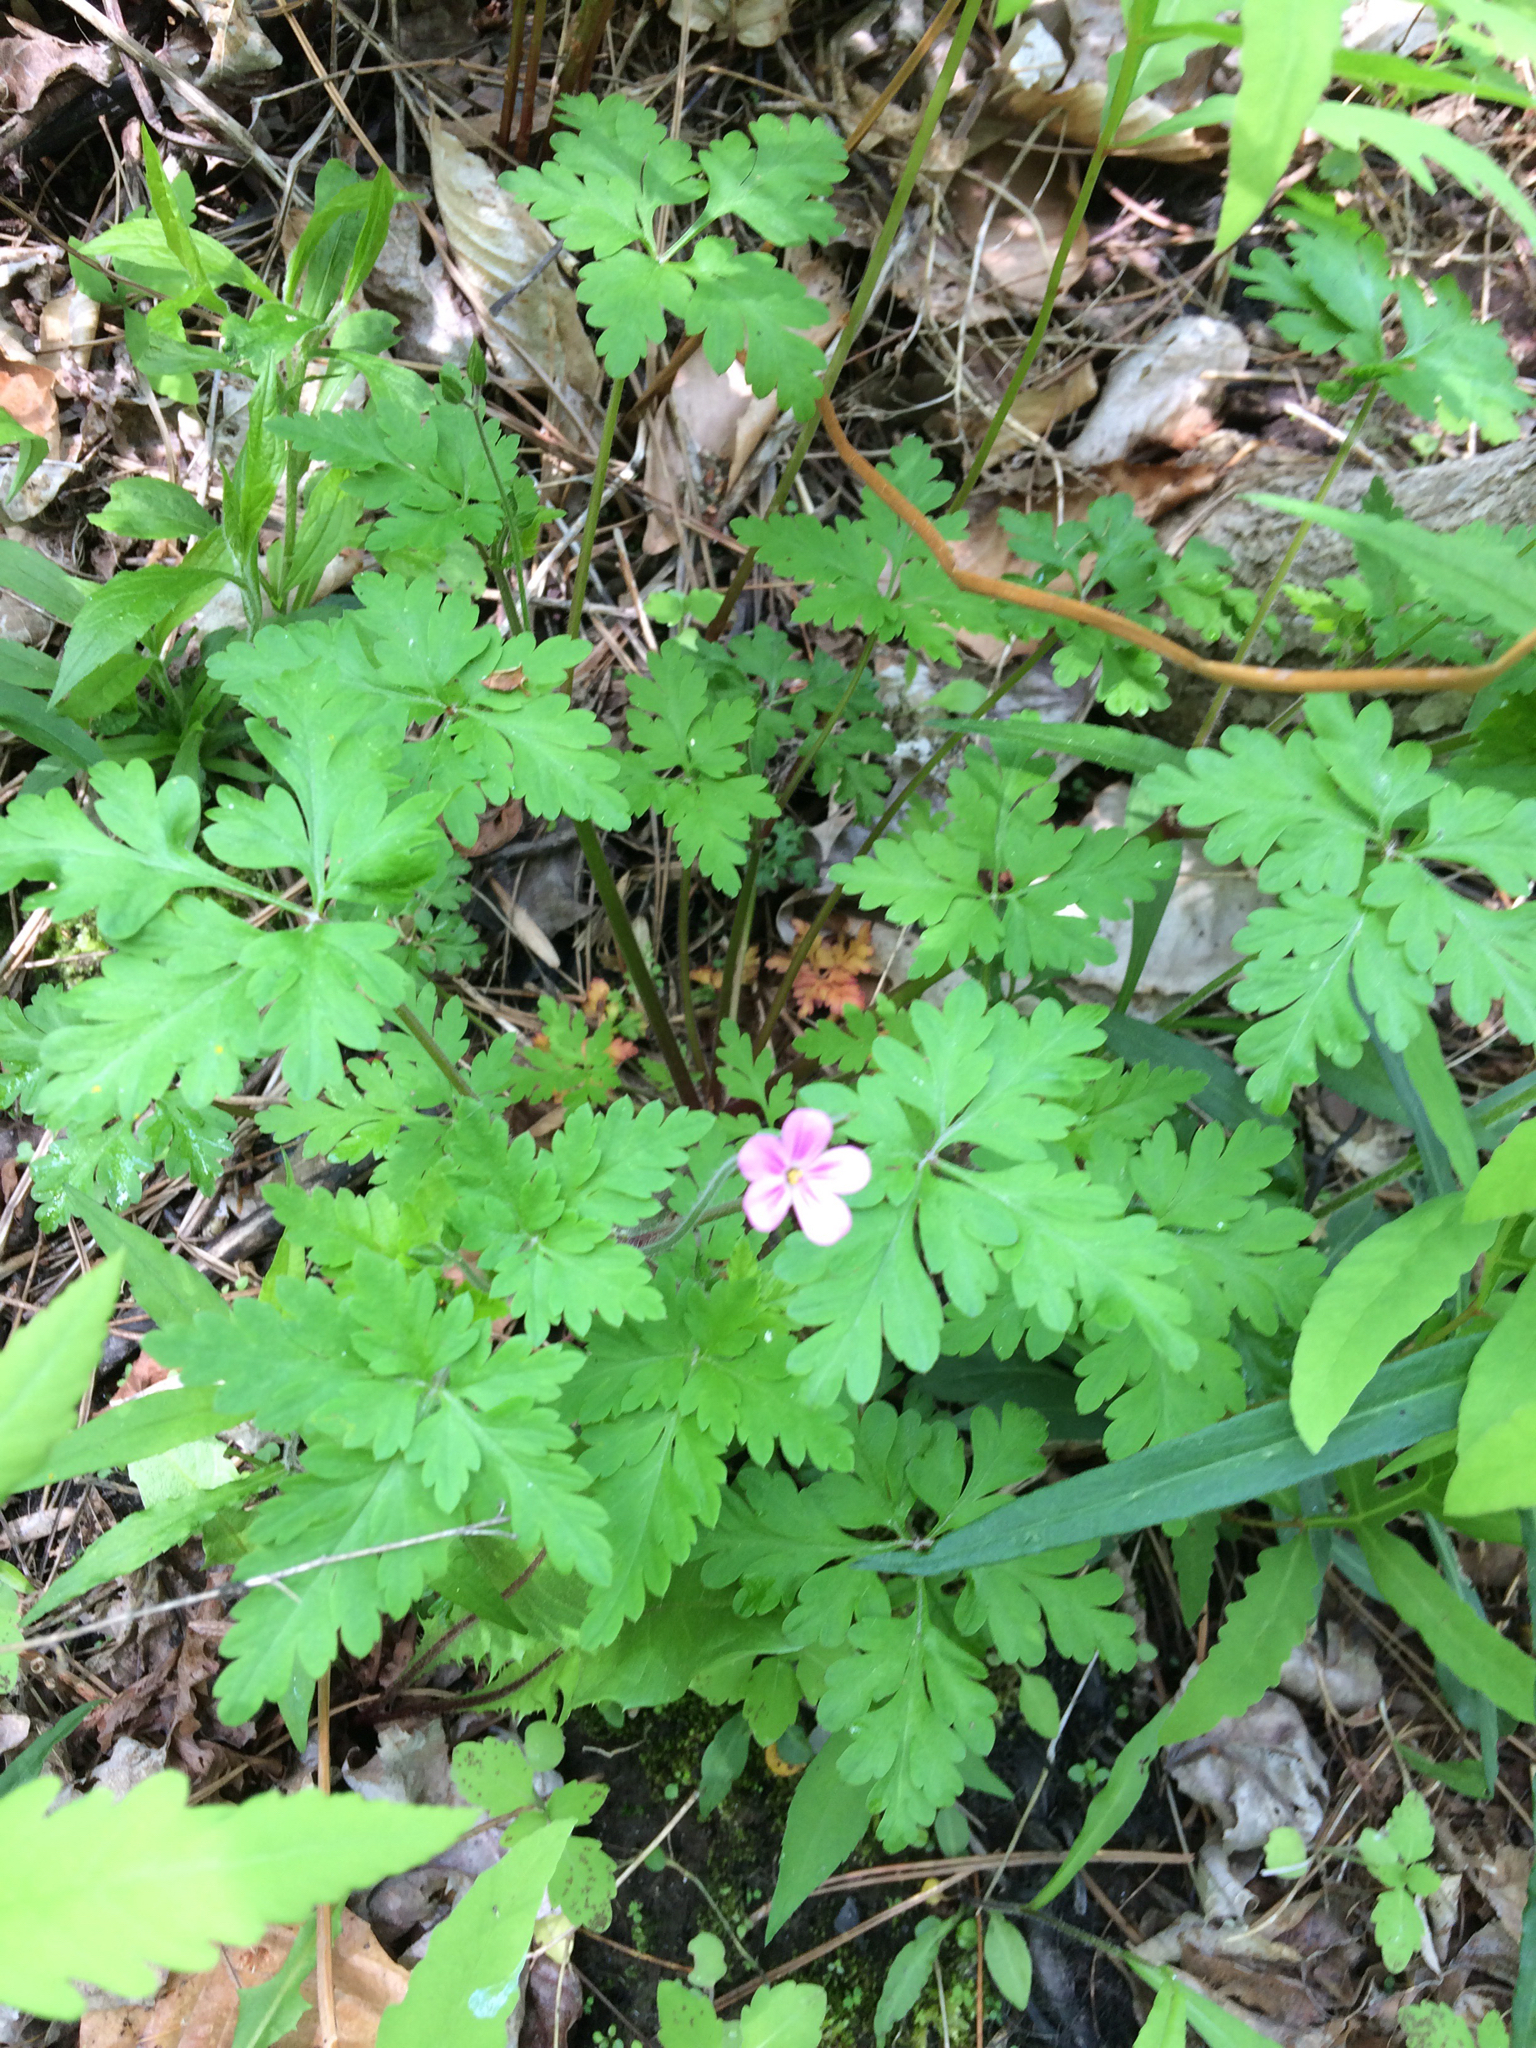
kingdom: Plantae
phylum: Tracheophyta
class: Magnoliopsida
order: Geraniales
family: Geraniaceae
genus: Geranium
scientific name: Geranium robertianum
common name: Herb-robert
